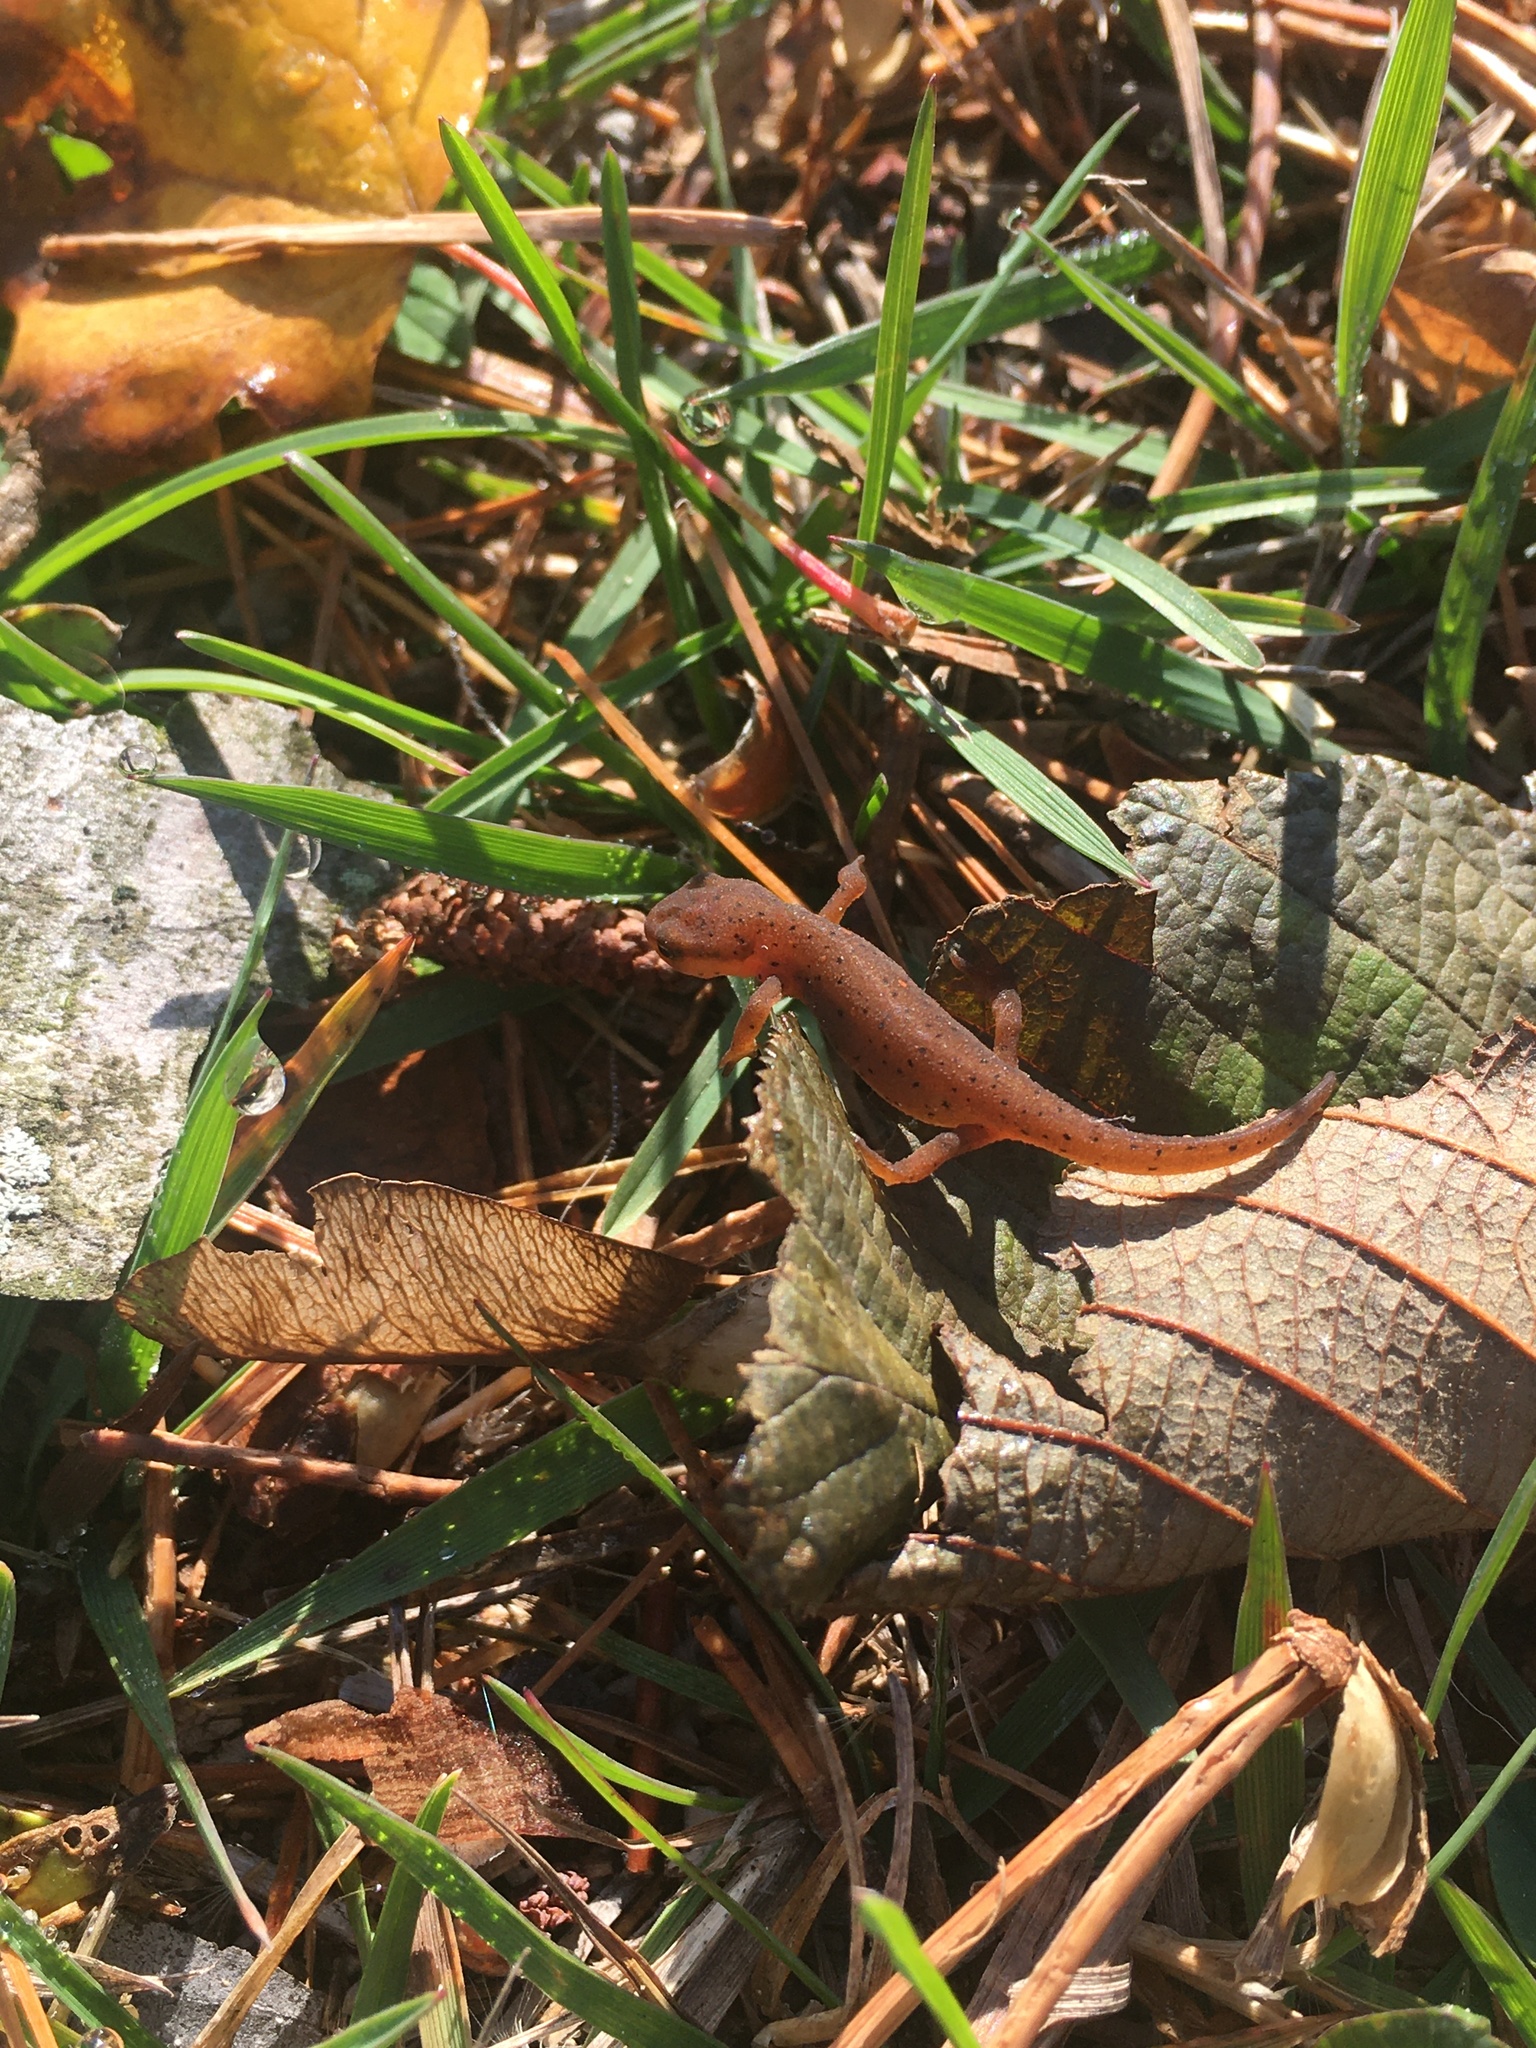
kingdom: Animalia
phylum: Chordata
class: Amphibia
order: Caudata
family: Salamandridae
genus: Notophthalmus
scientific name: Notophthalmus viridescens
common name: Eastern newt
